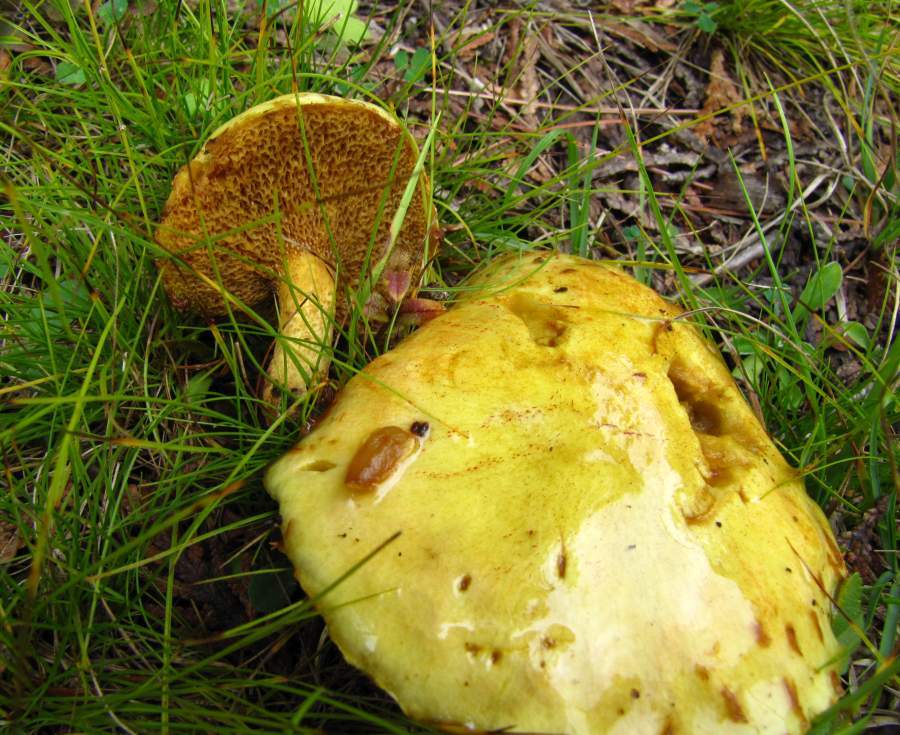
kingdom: Fungi
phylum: Basidiomycota
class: Agaricomycetes
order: Boletales
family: Suillaceae
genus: Suillus
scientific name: Suillus americanus
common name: Chicken fat mushroom
